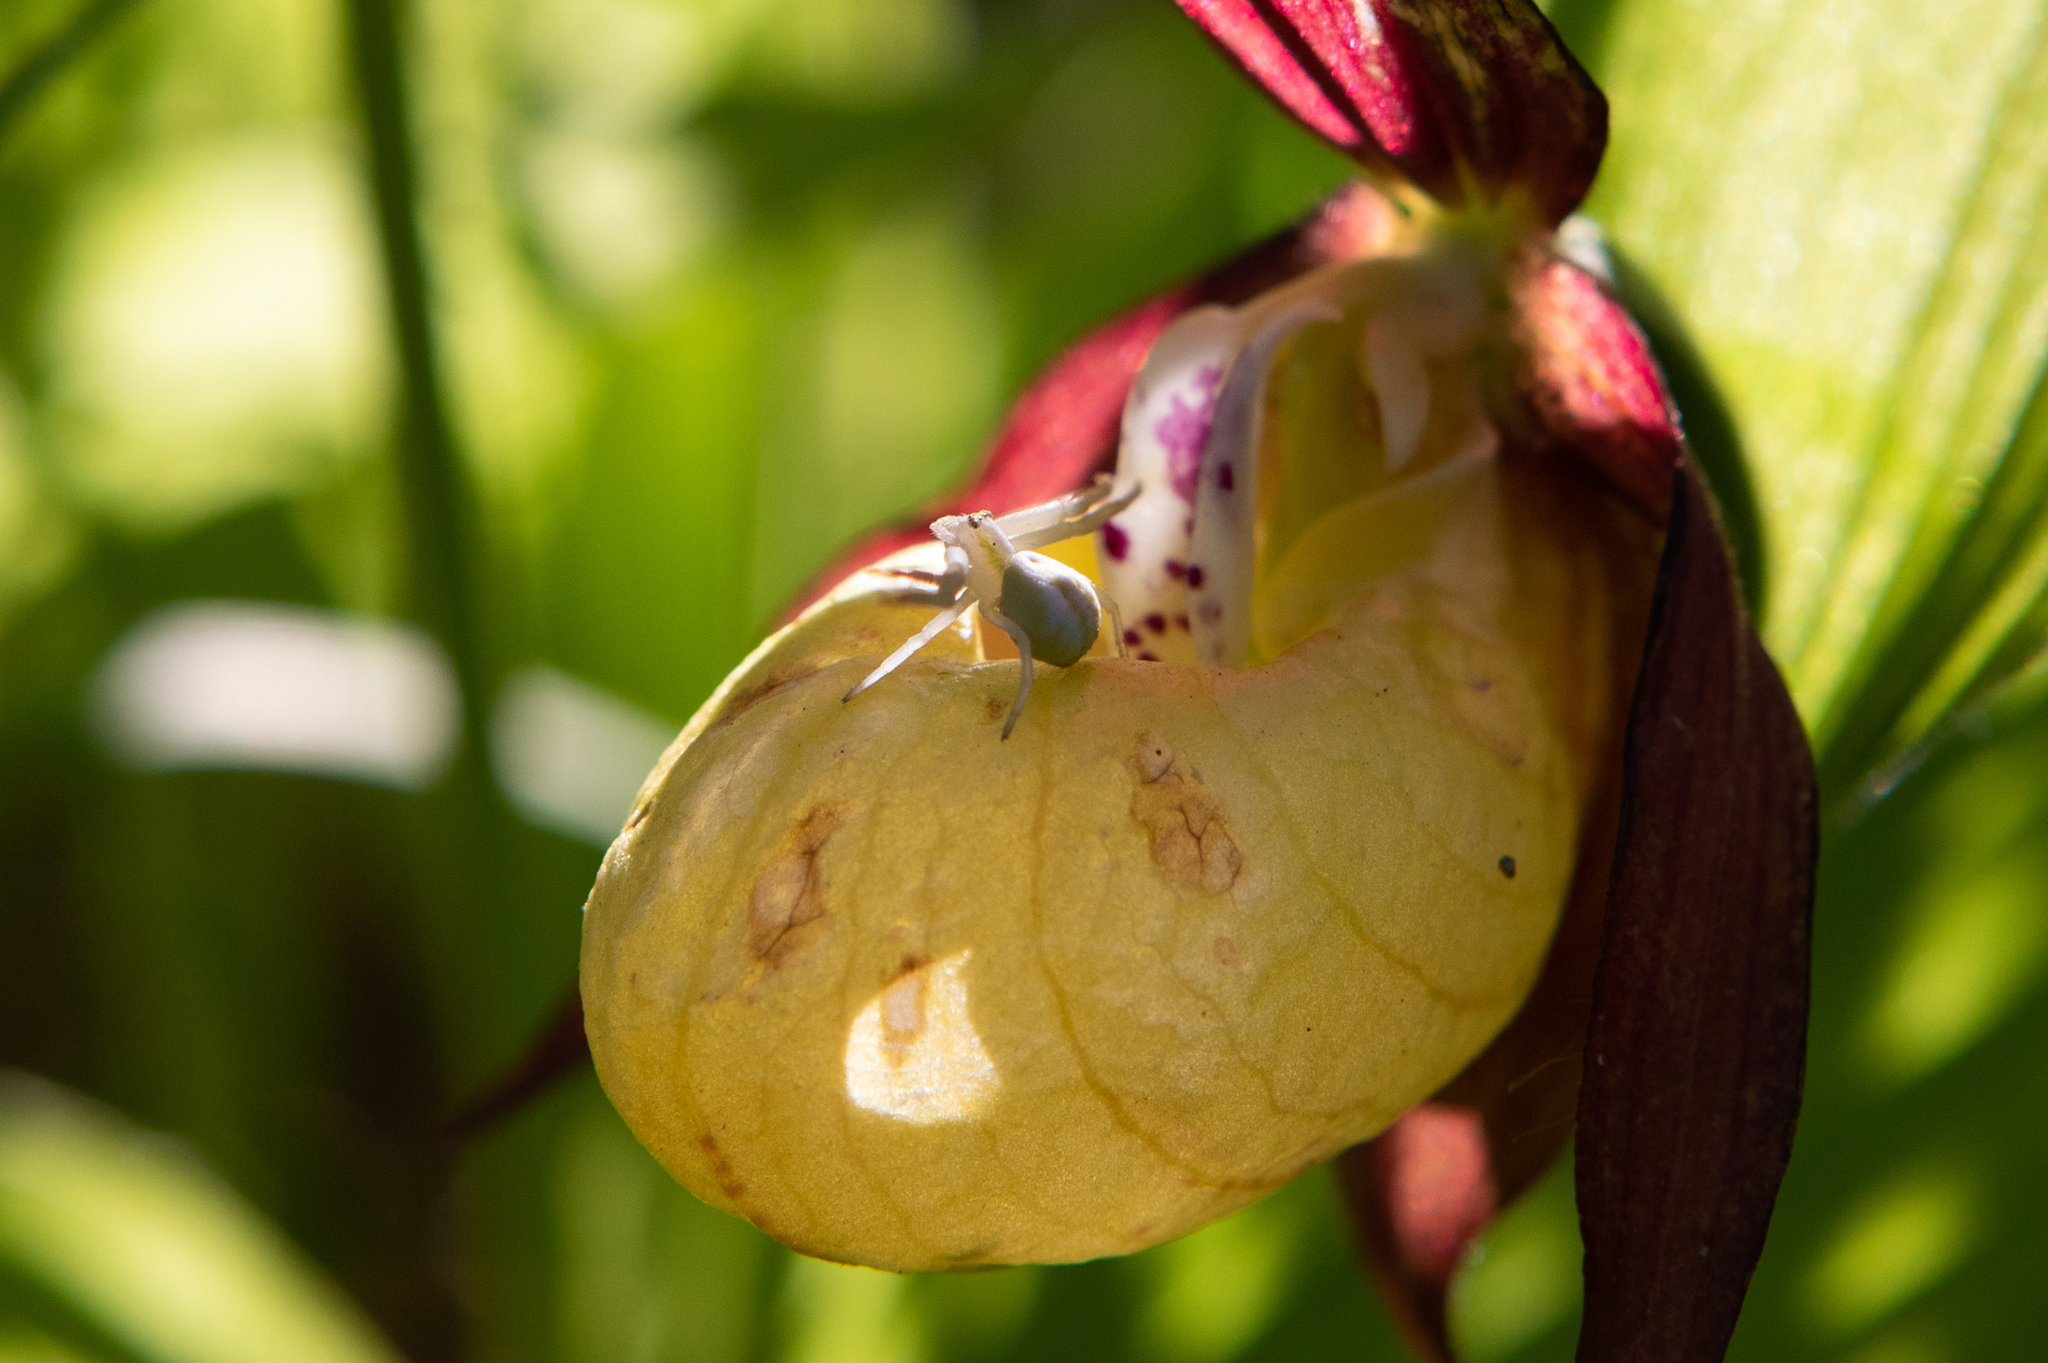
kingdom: Animalia
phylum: Arthropoda
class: Arachnida
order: Araneae
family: Thomisidae
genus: Misumena
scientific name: Misumena vatia
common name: Goldenrod crab spider
